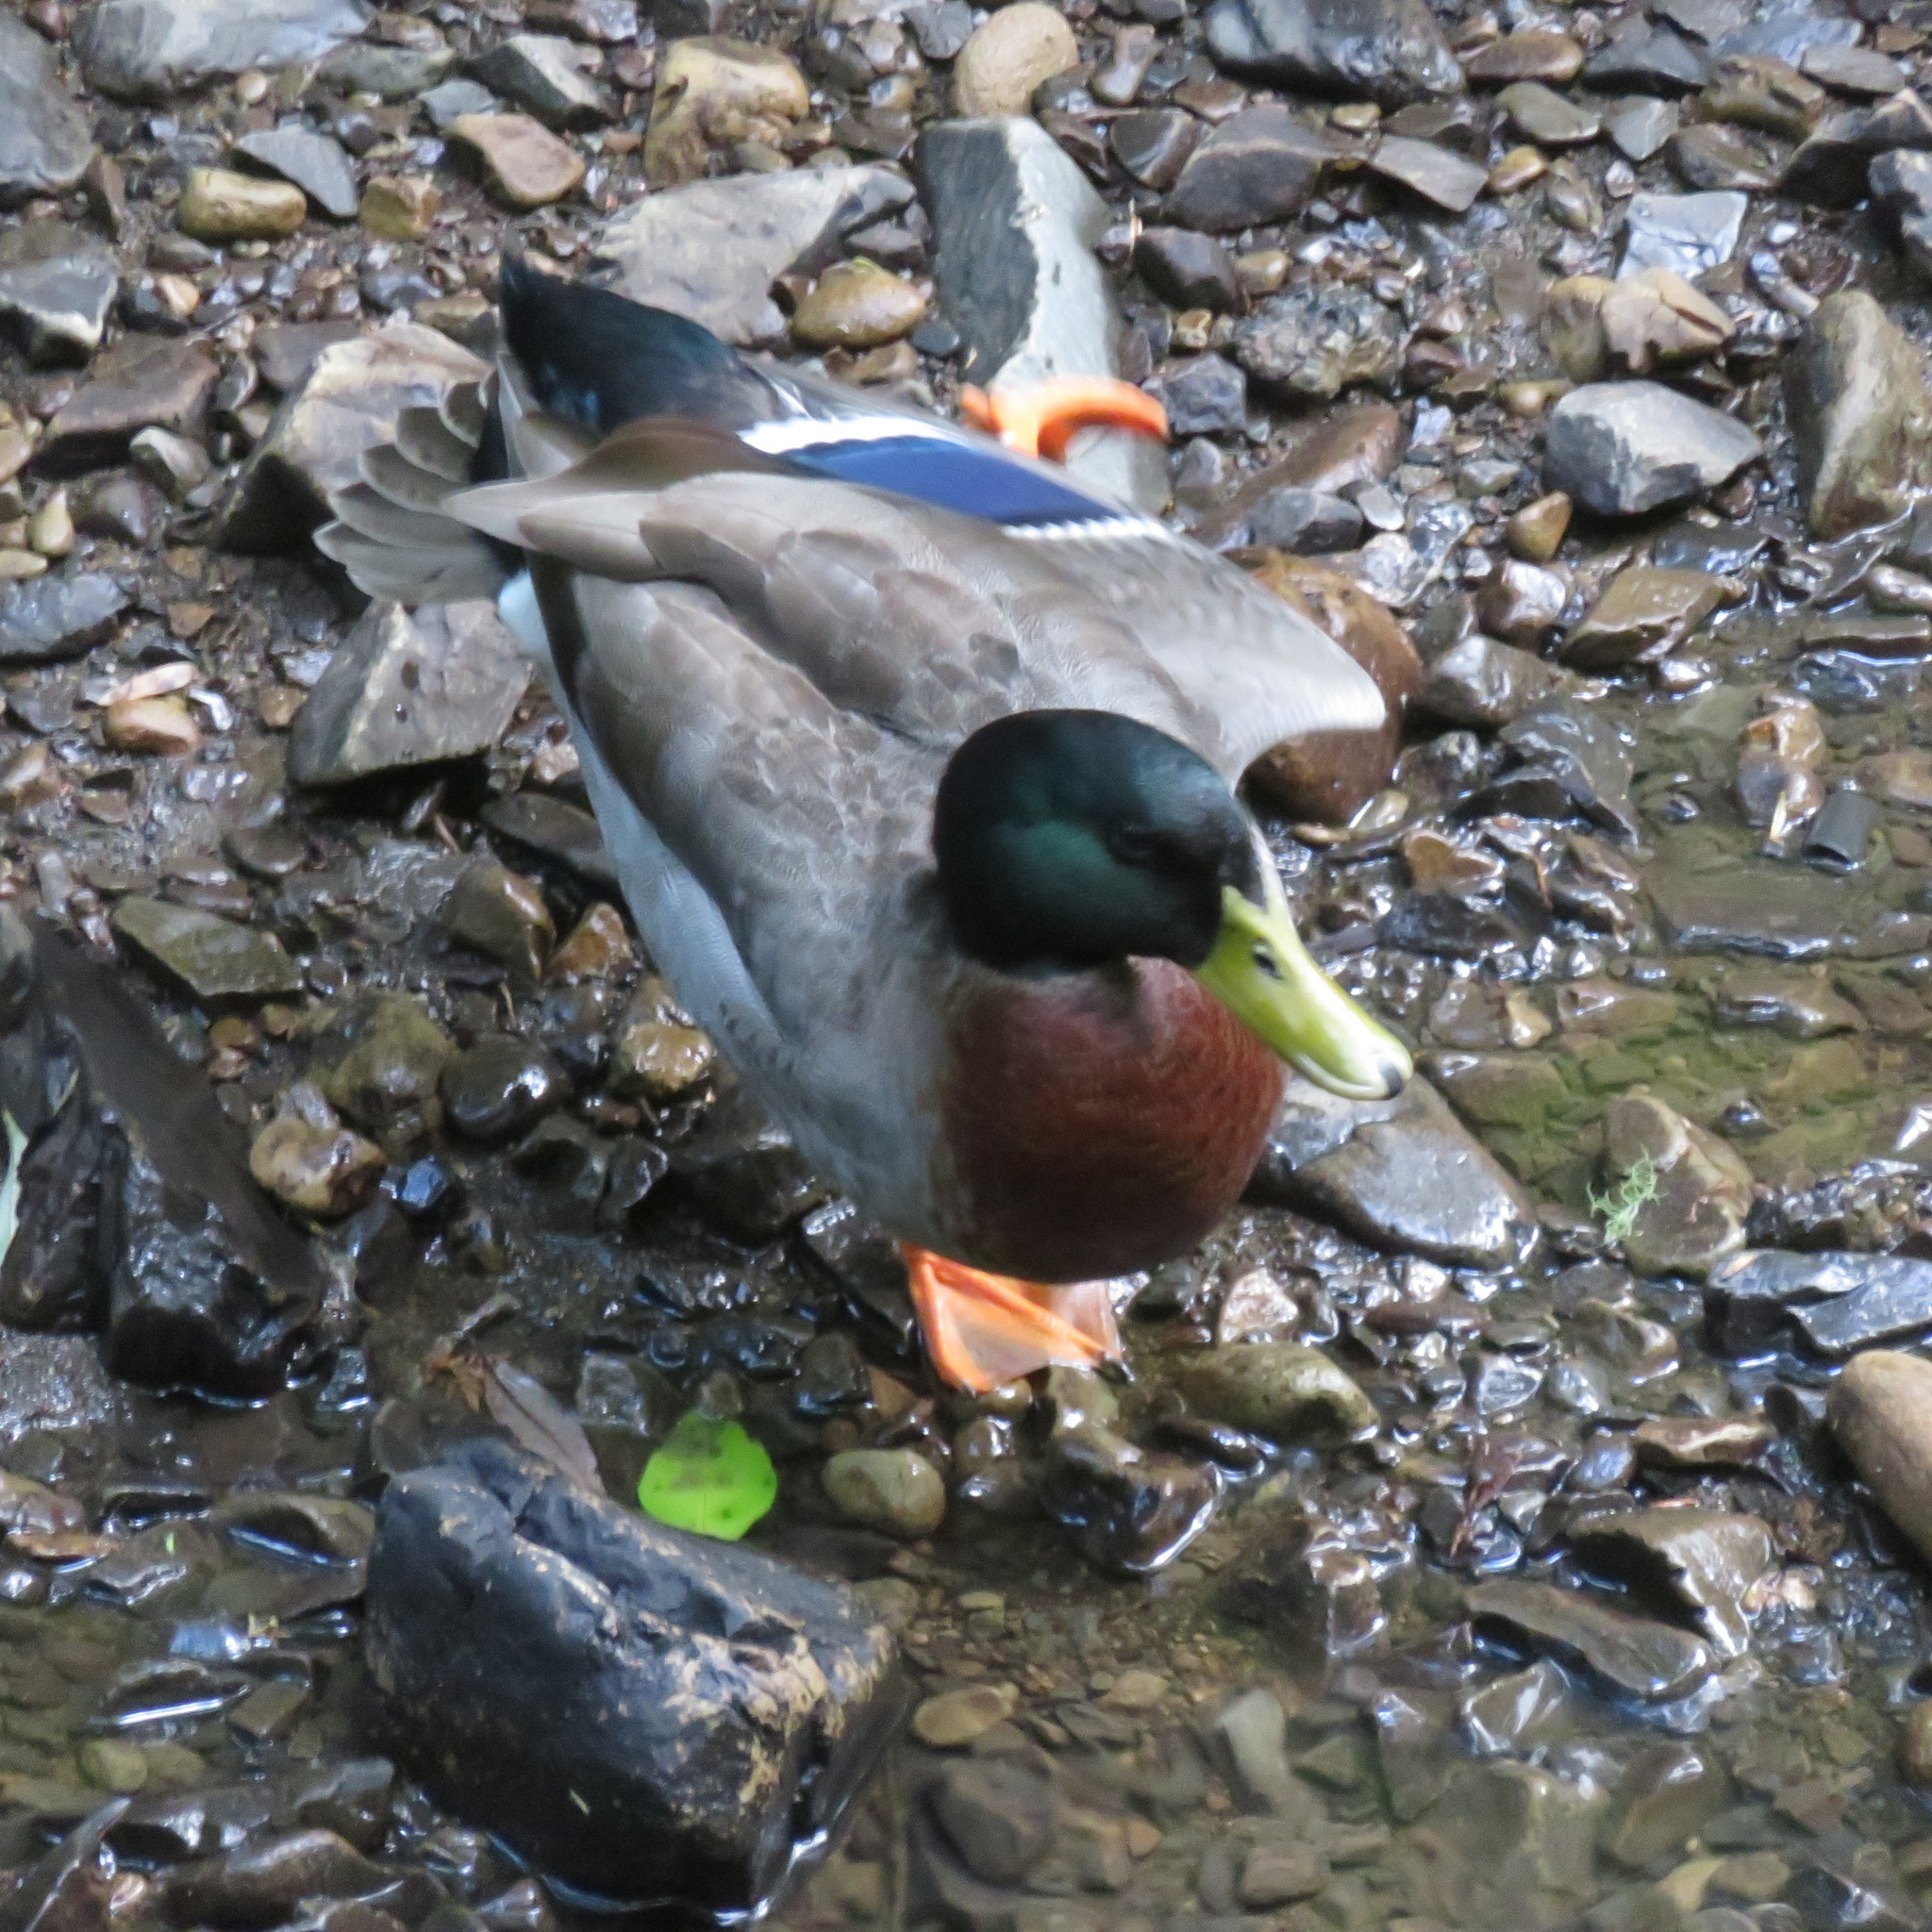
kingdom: Animalia
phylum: Chordata
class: Aves
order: Anseriformes
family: Anatidae
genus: Anas
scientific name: Anas platyrhynchos
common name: Mallard
